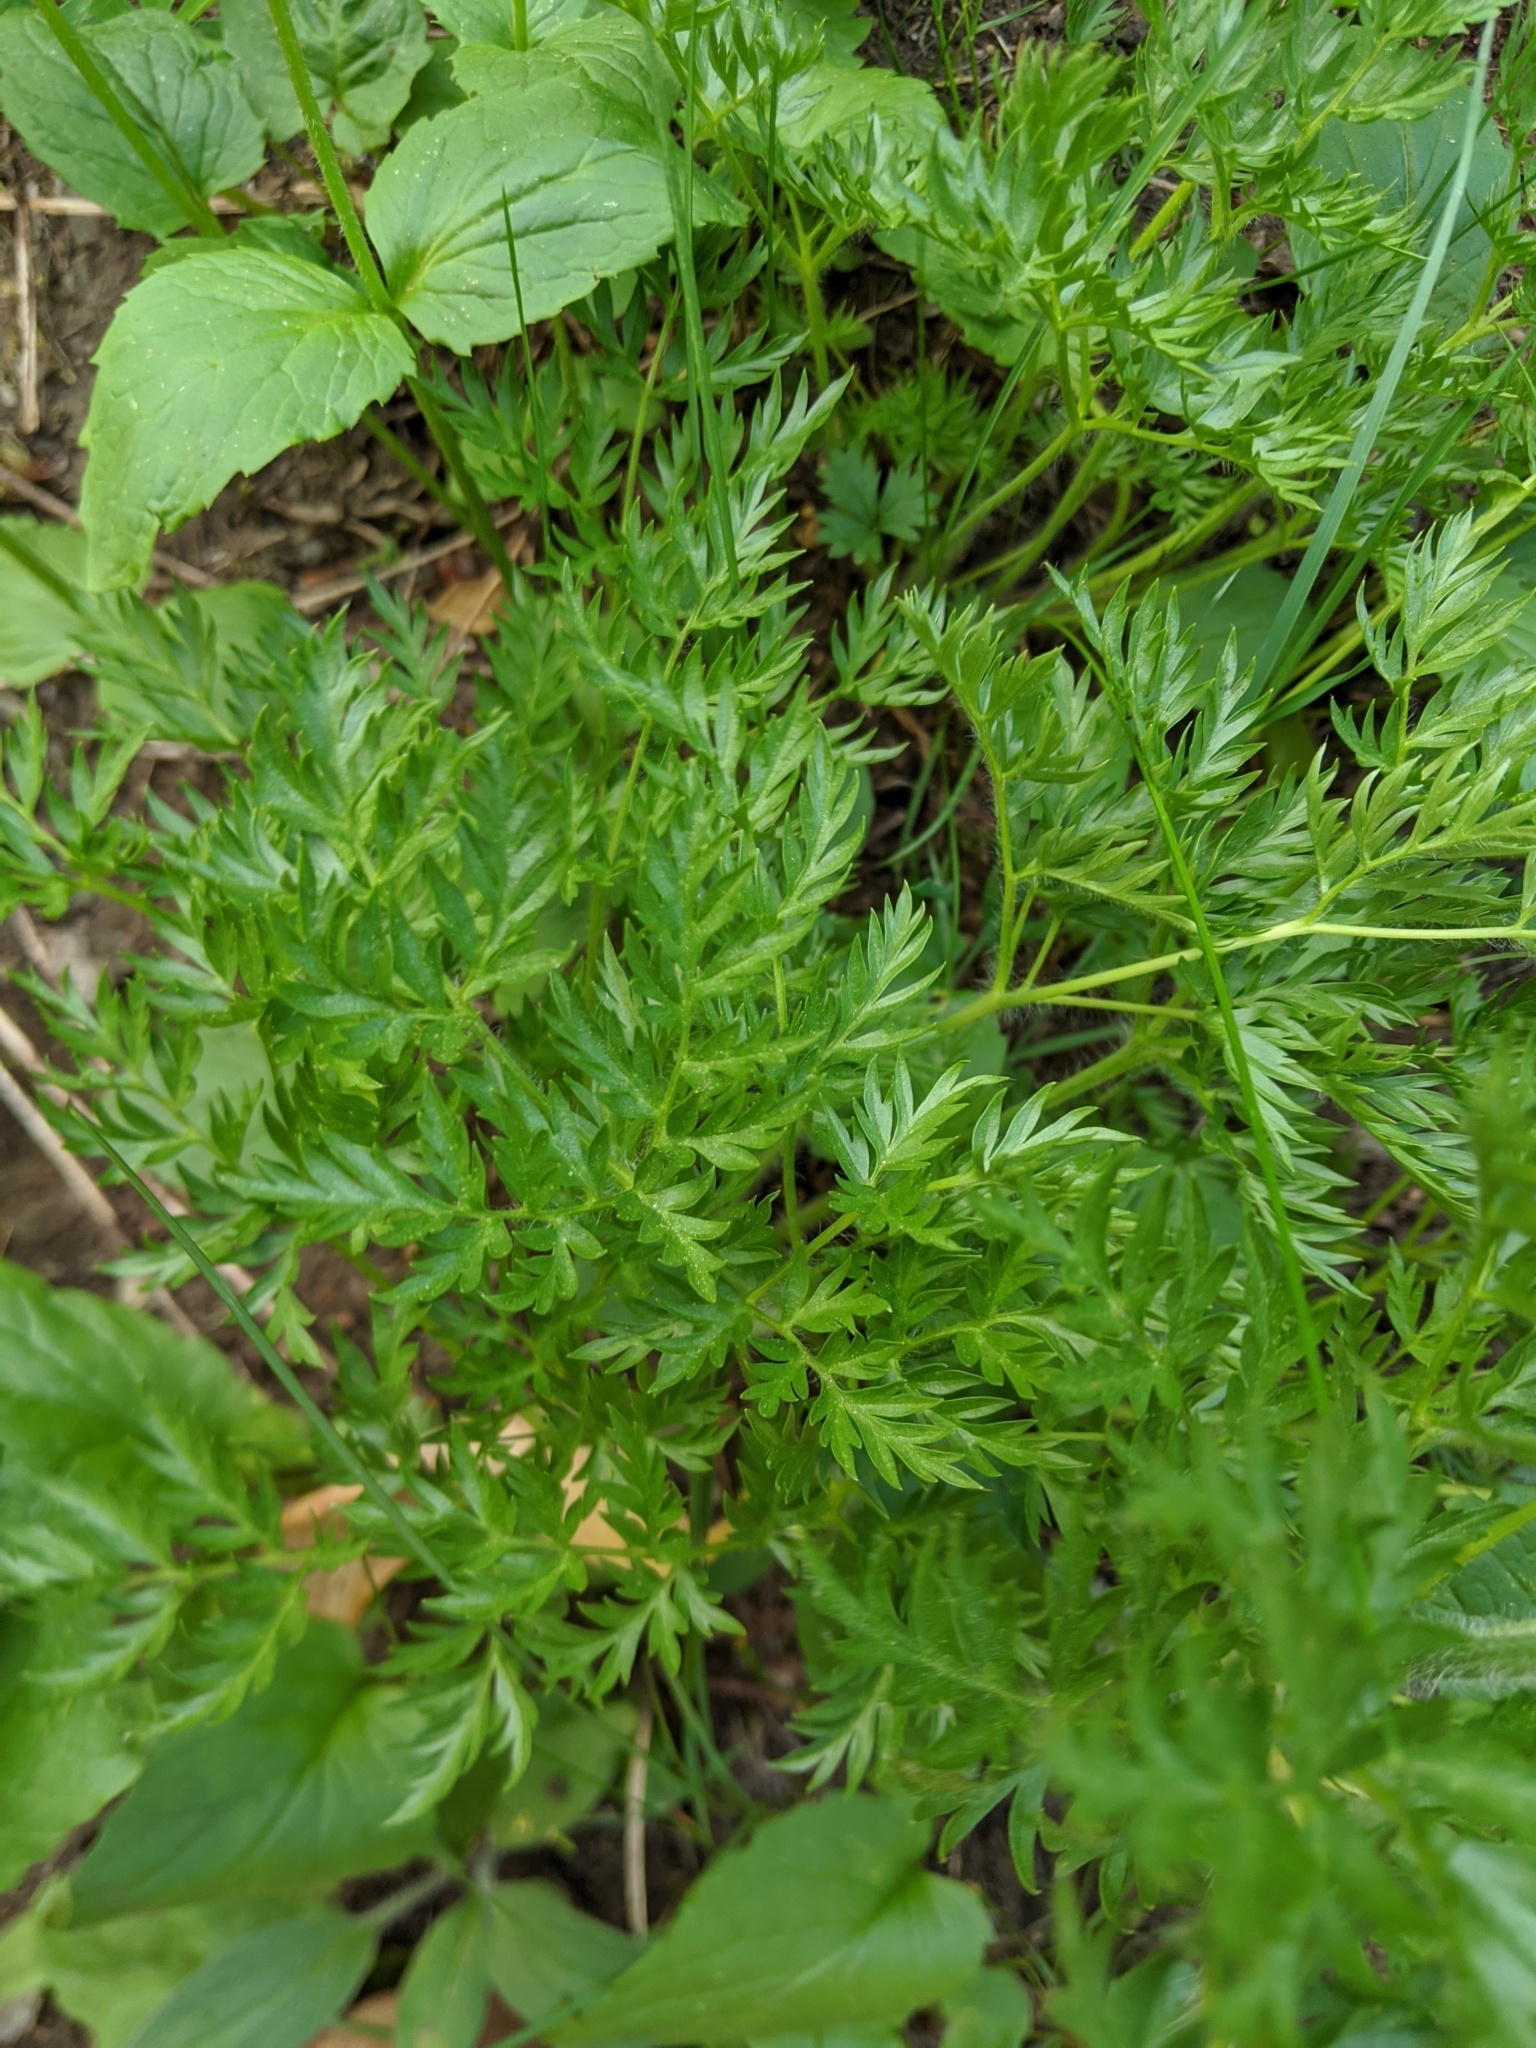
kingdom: Plantae
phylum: Tracheophyta
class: Magnoliopsida
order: Ranunculales
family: Ranunculaceae
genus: Pulsatilla
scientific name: Pulsatilla occidentalis
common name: Mountain pasqueflower
